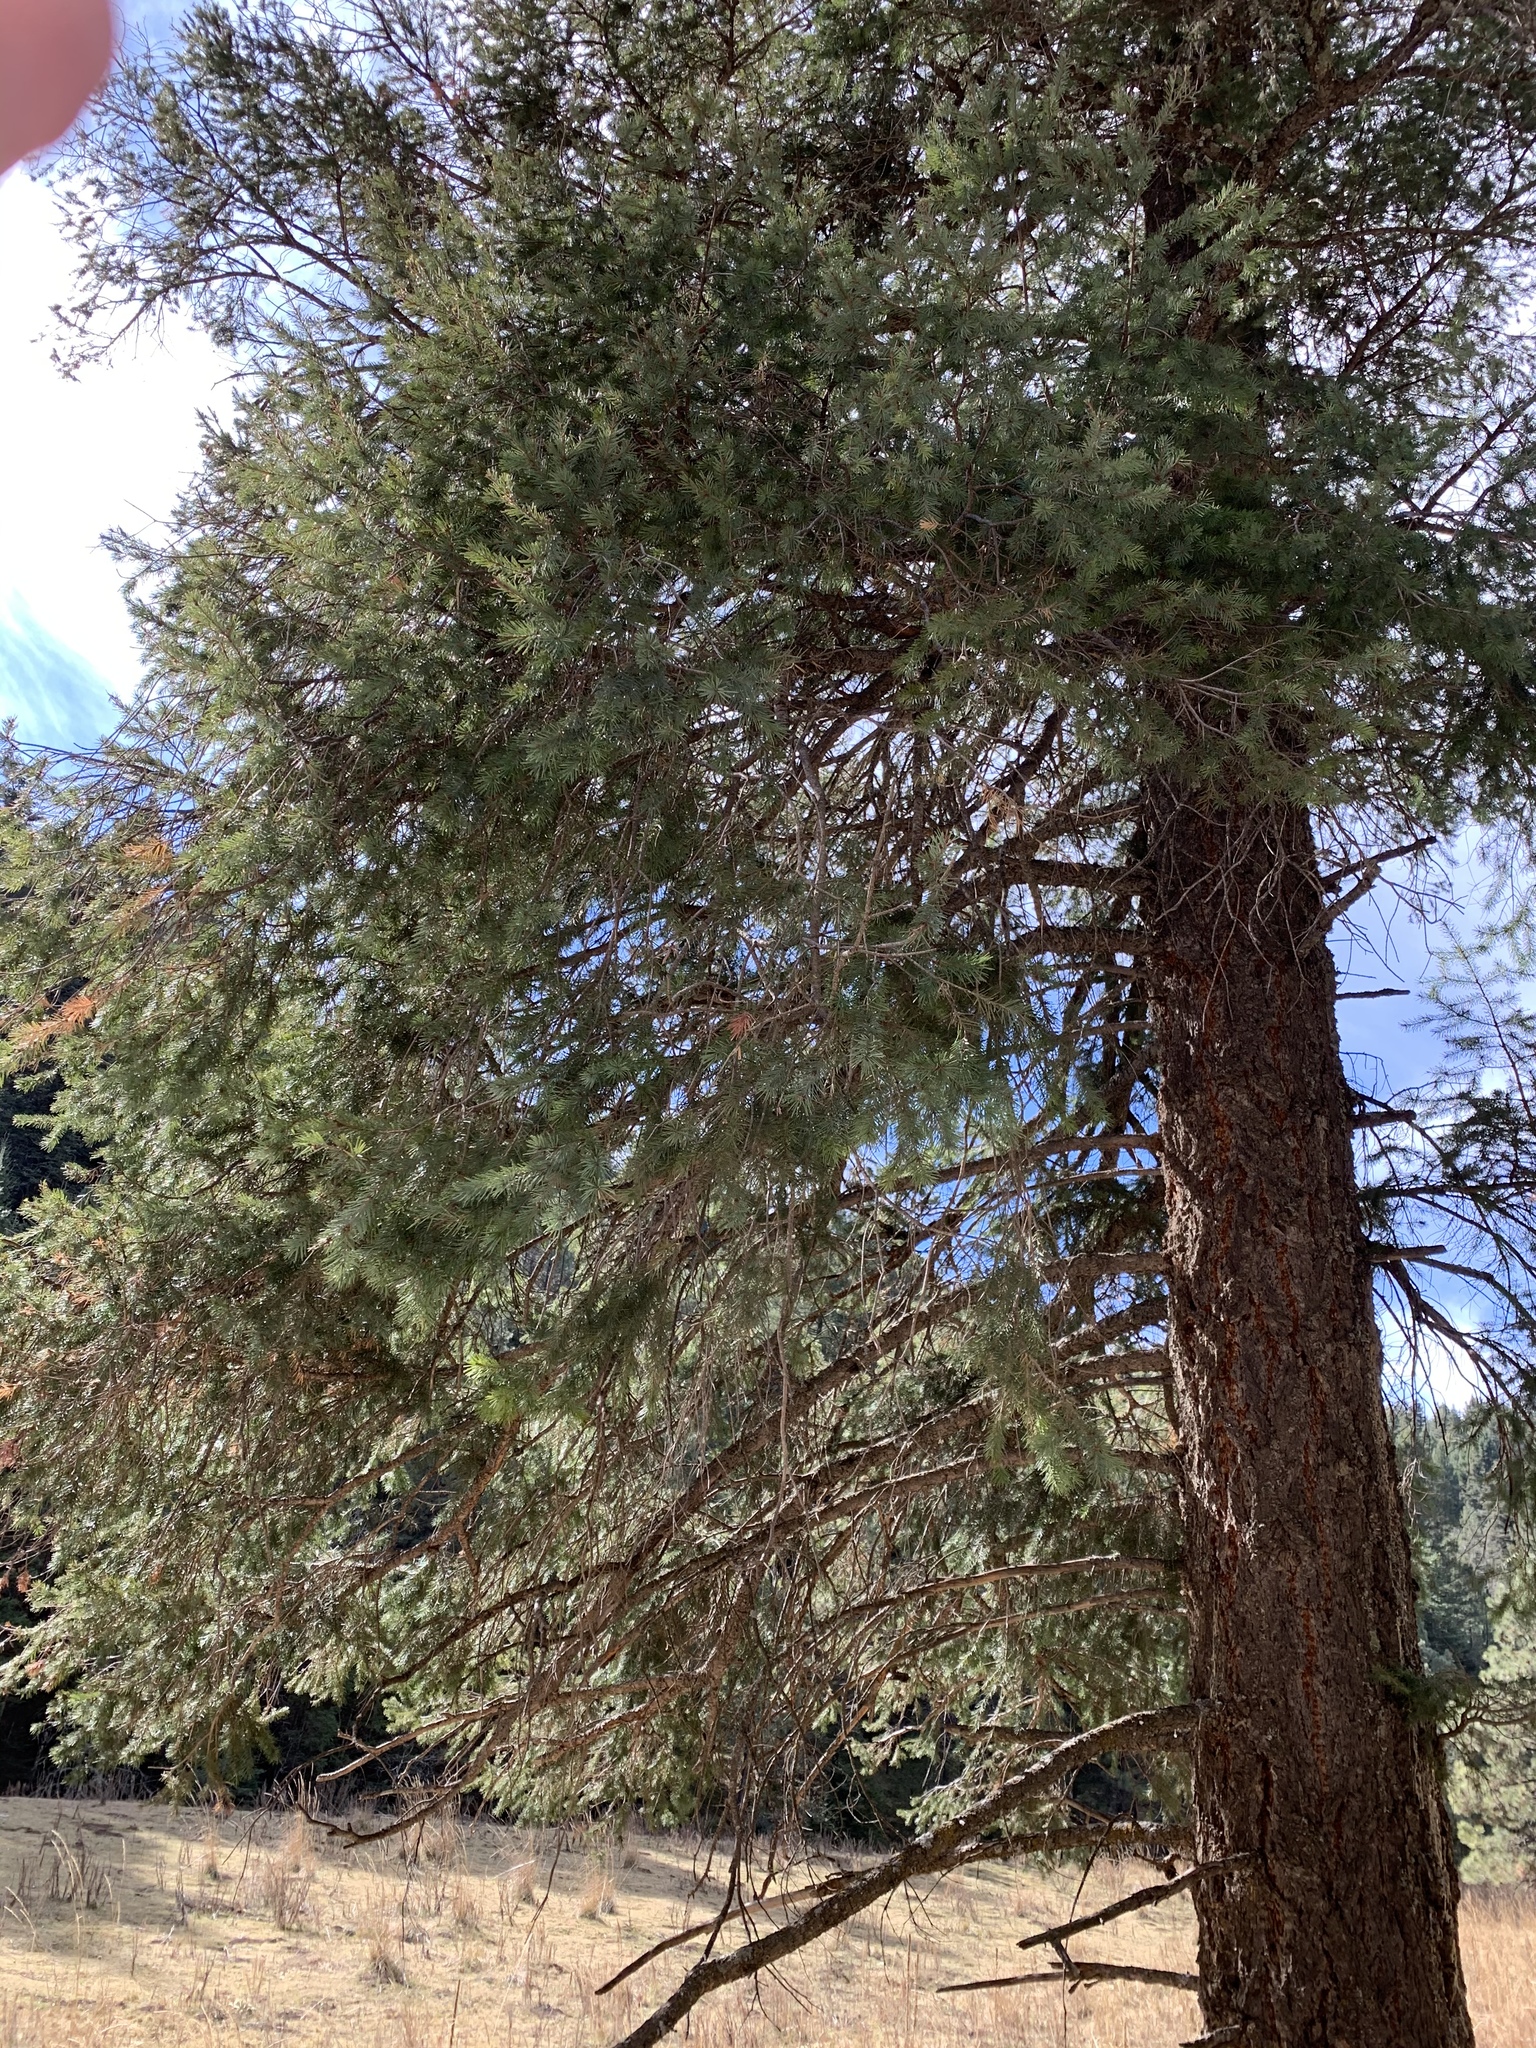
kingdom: Plantae
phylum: Tracheophyta
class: Pinopsida
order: Pinales
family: Pinaceae
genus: Pseudotsuga
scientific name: Pseudotsuga menziesii
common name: Douglas fir
